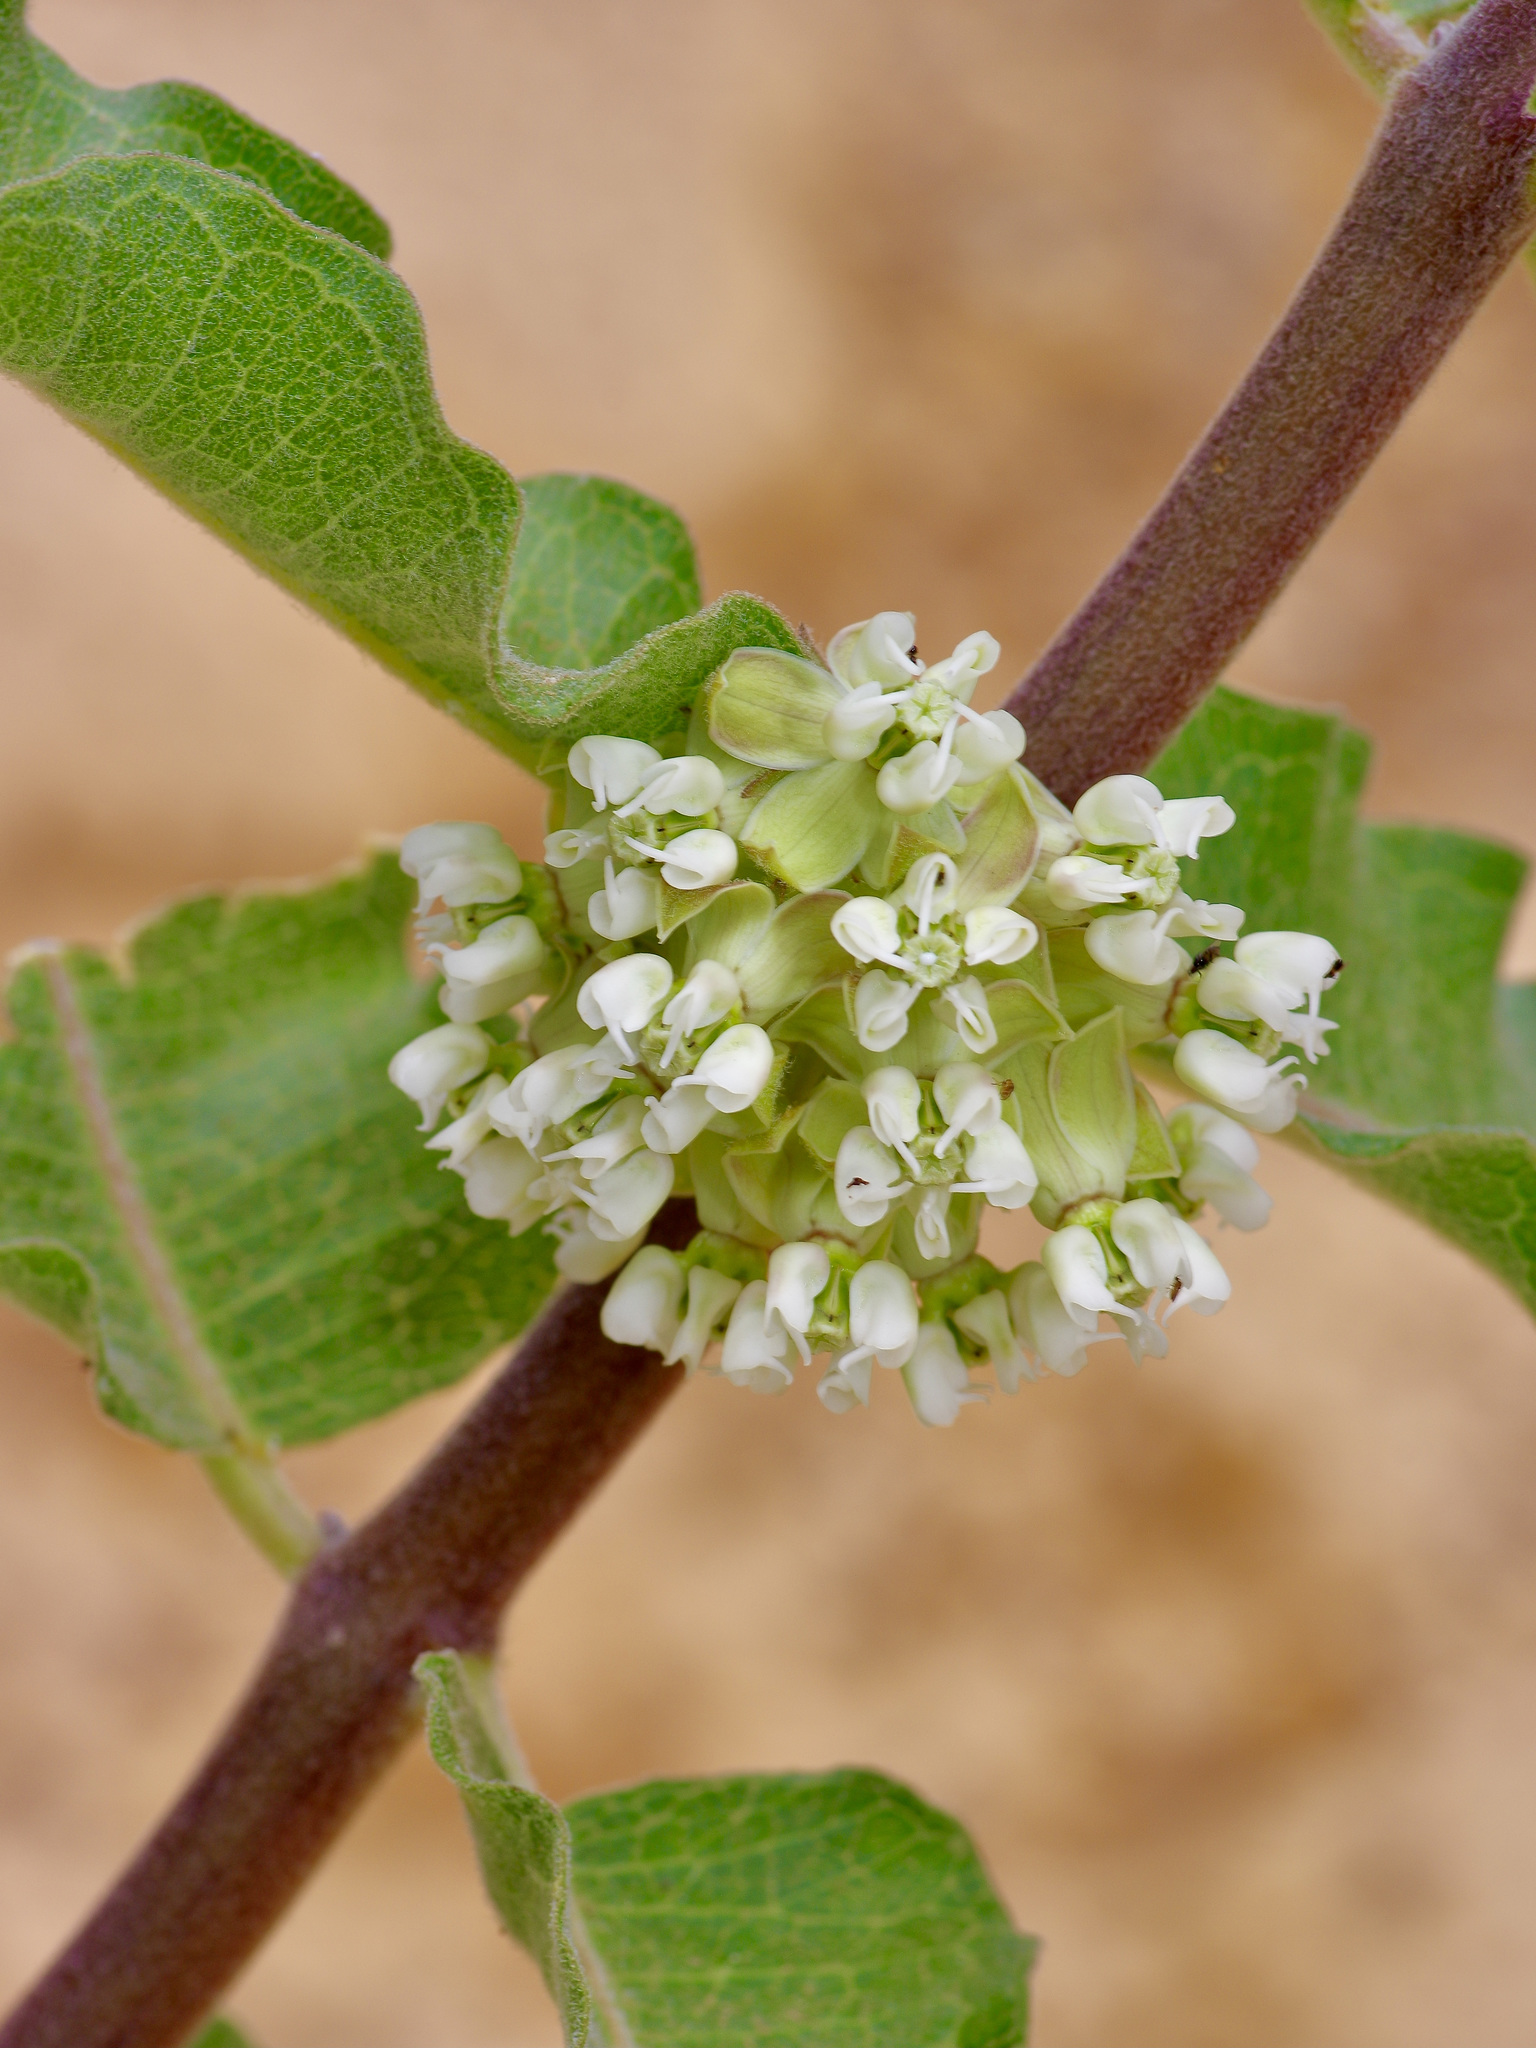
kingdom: Plantae
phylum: Tracheophyta
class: Magnoliopsida
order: Gentianales
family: Apocynaceae
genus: Asclepias
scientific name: Asclepias arenaria
